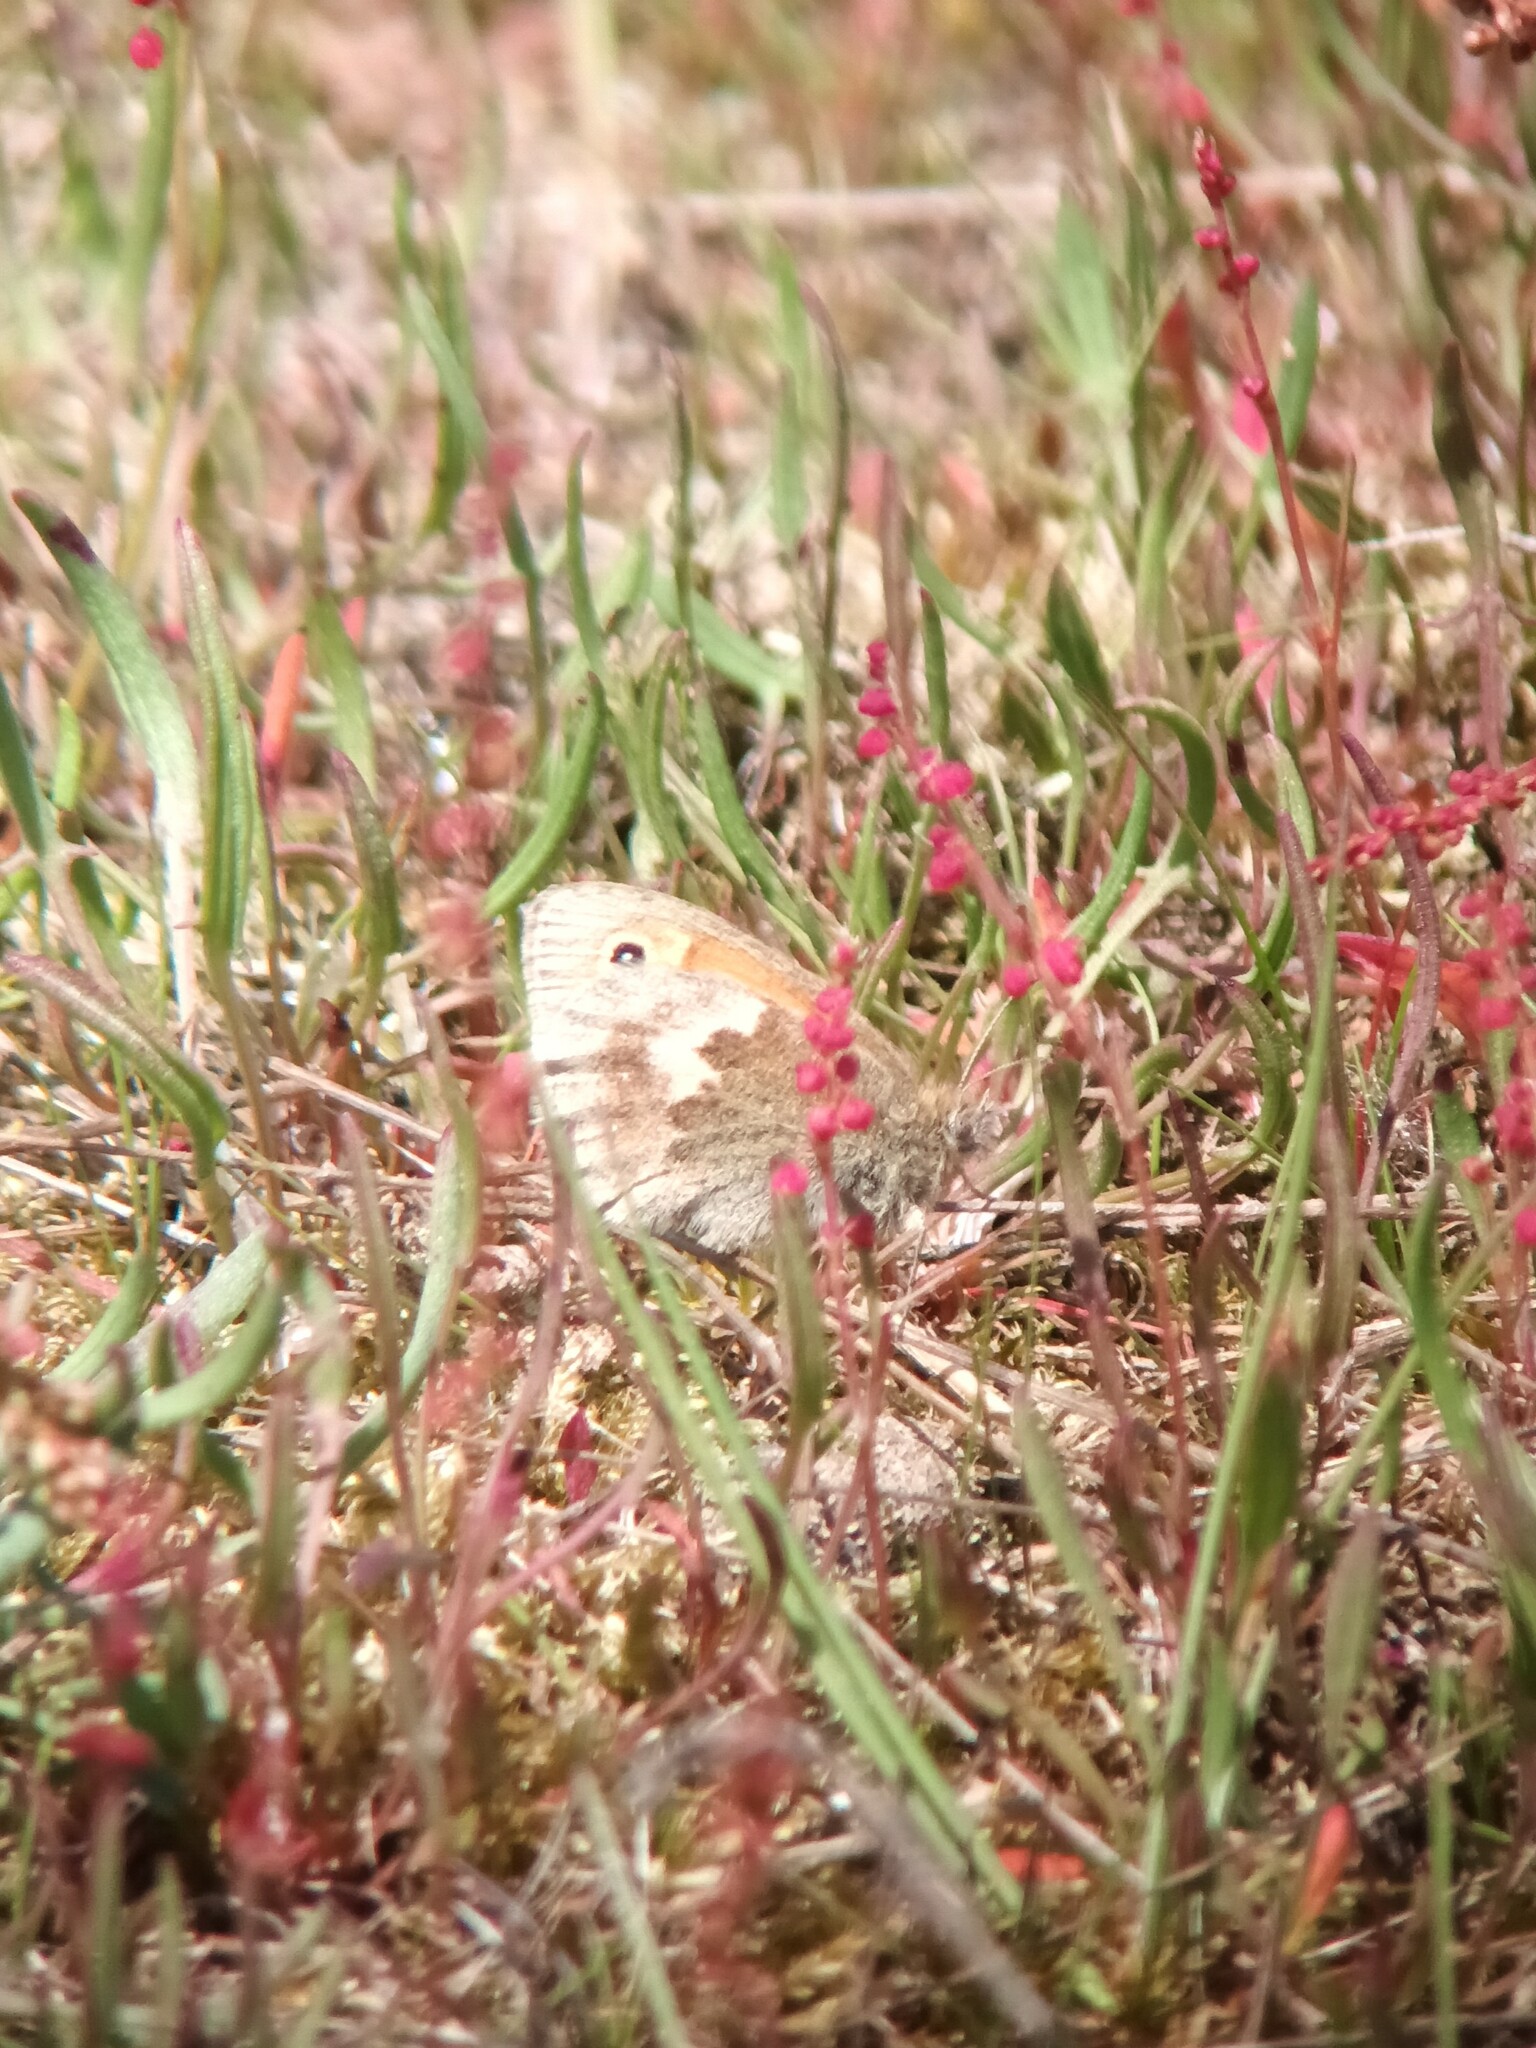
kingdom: Animalia
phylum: Arthropoda
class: Insecta
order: Lepidoptera
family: Nymphalidae
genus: Coenonympha
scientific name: Coenonympha pamphilus
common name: Small heath
